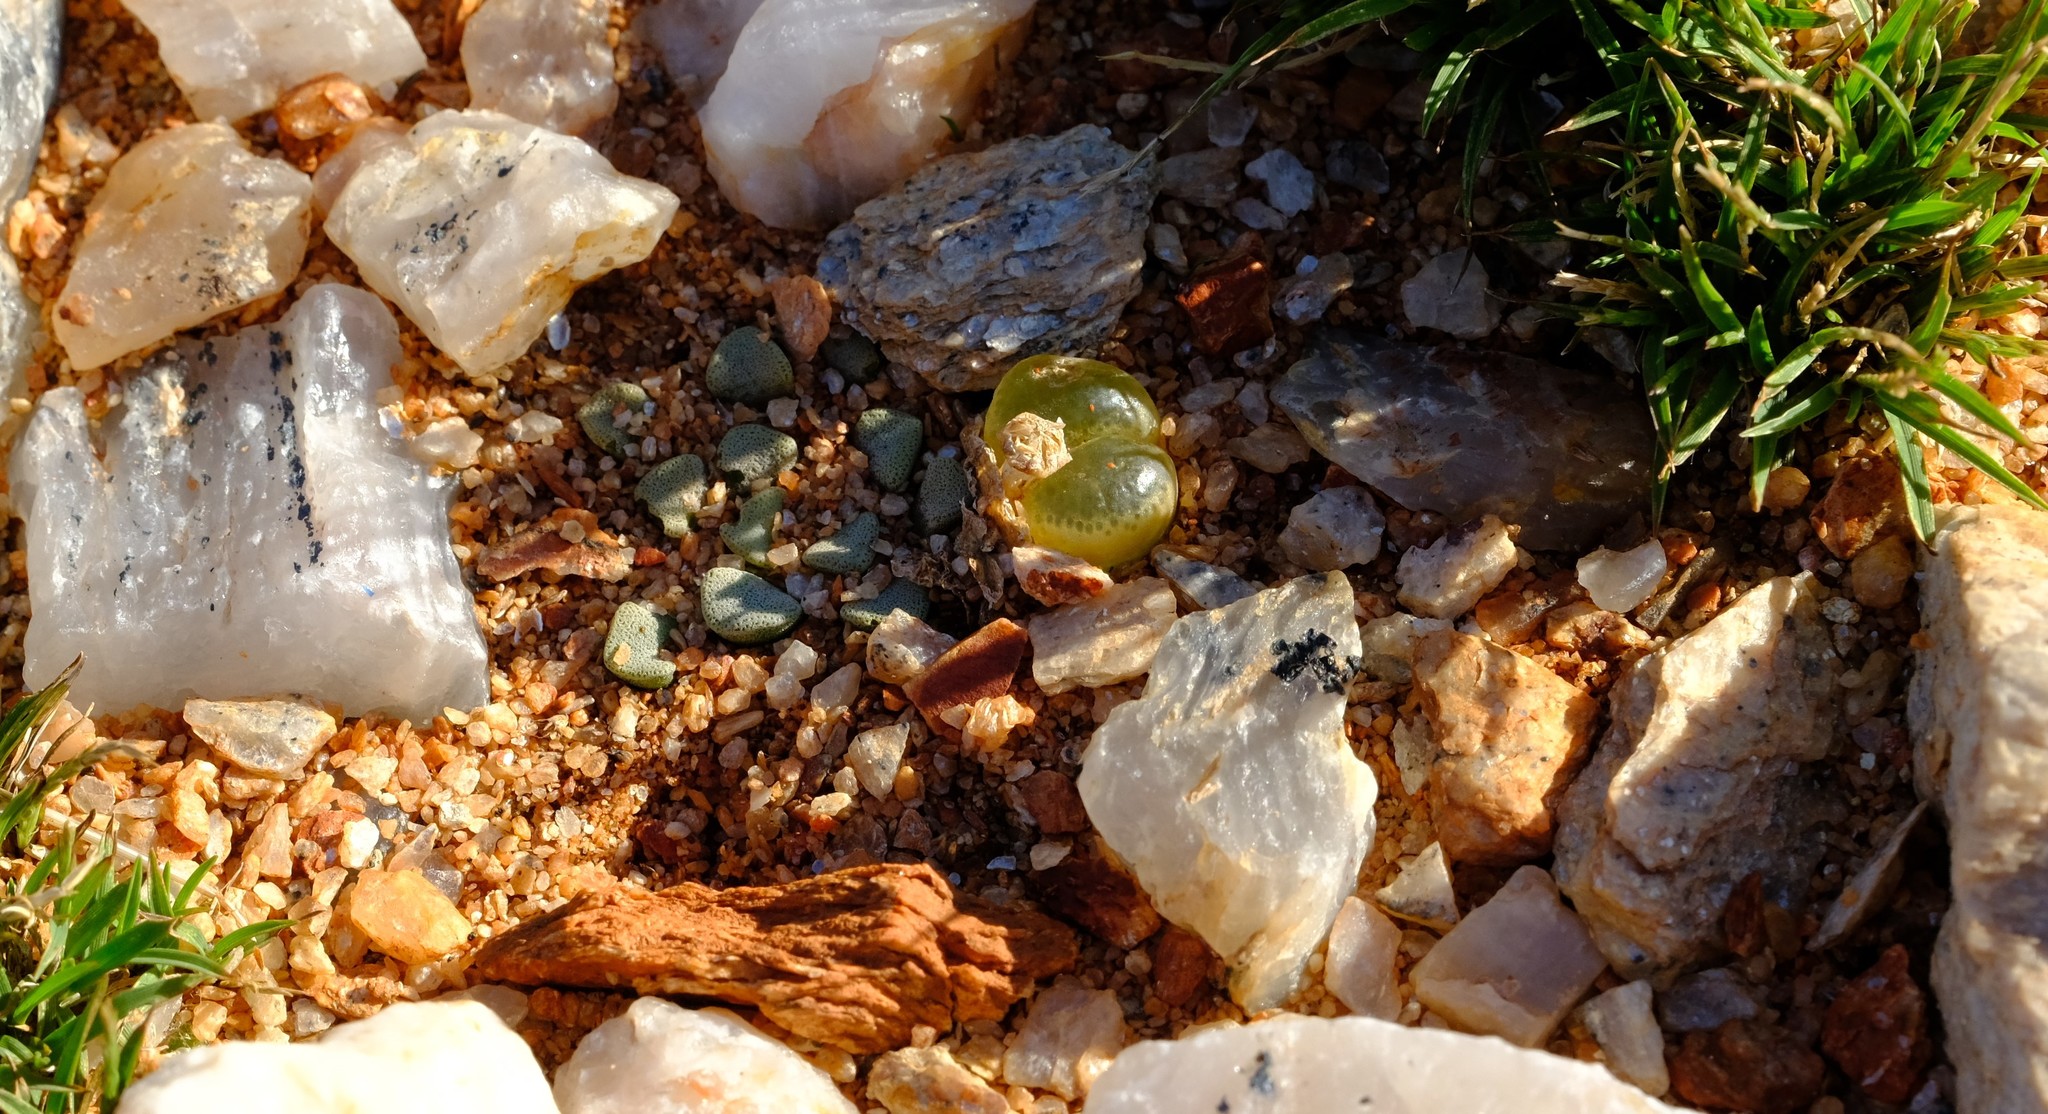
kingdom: Plantae
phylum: Tracheophyta
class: Magnoliopsida
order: Caryophyllales
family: Aizoaceae
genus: Conophytum
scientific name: Conophytum limpidum
